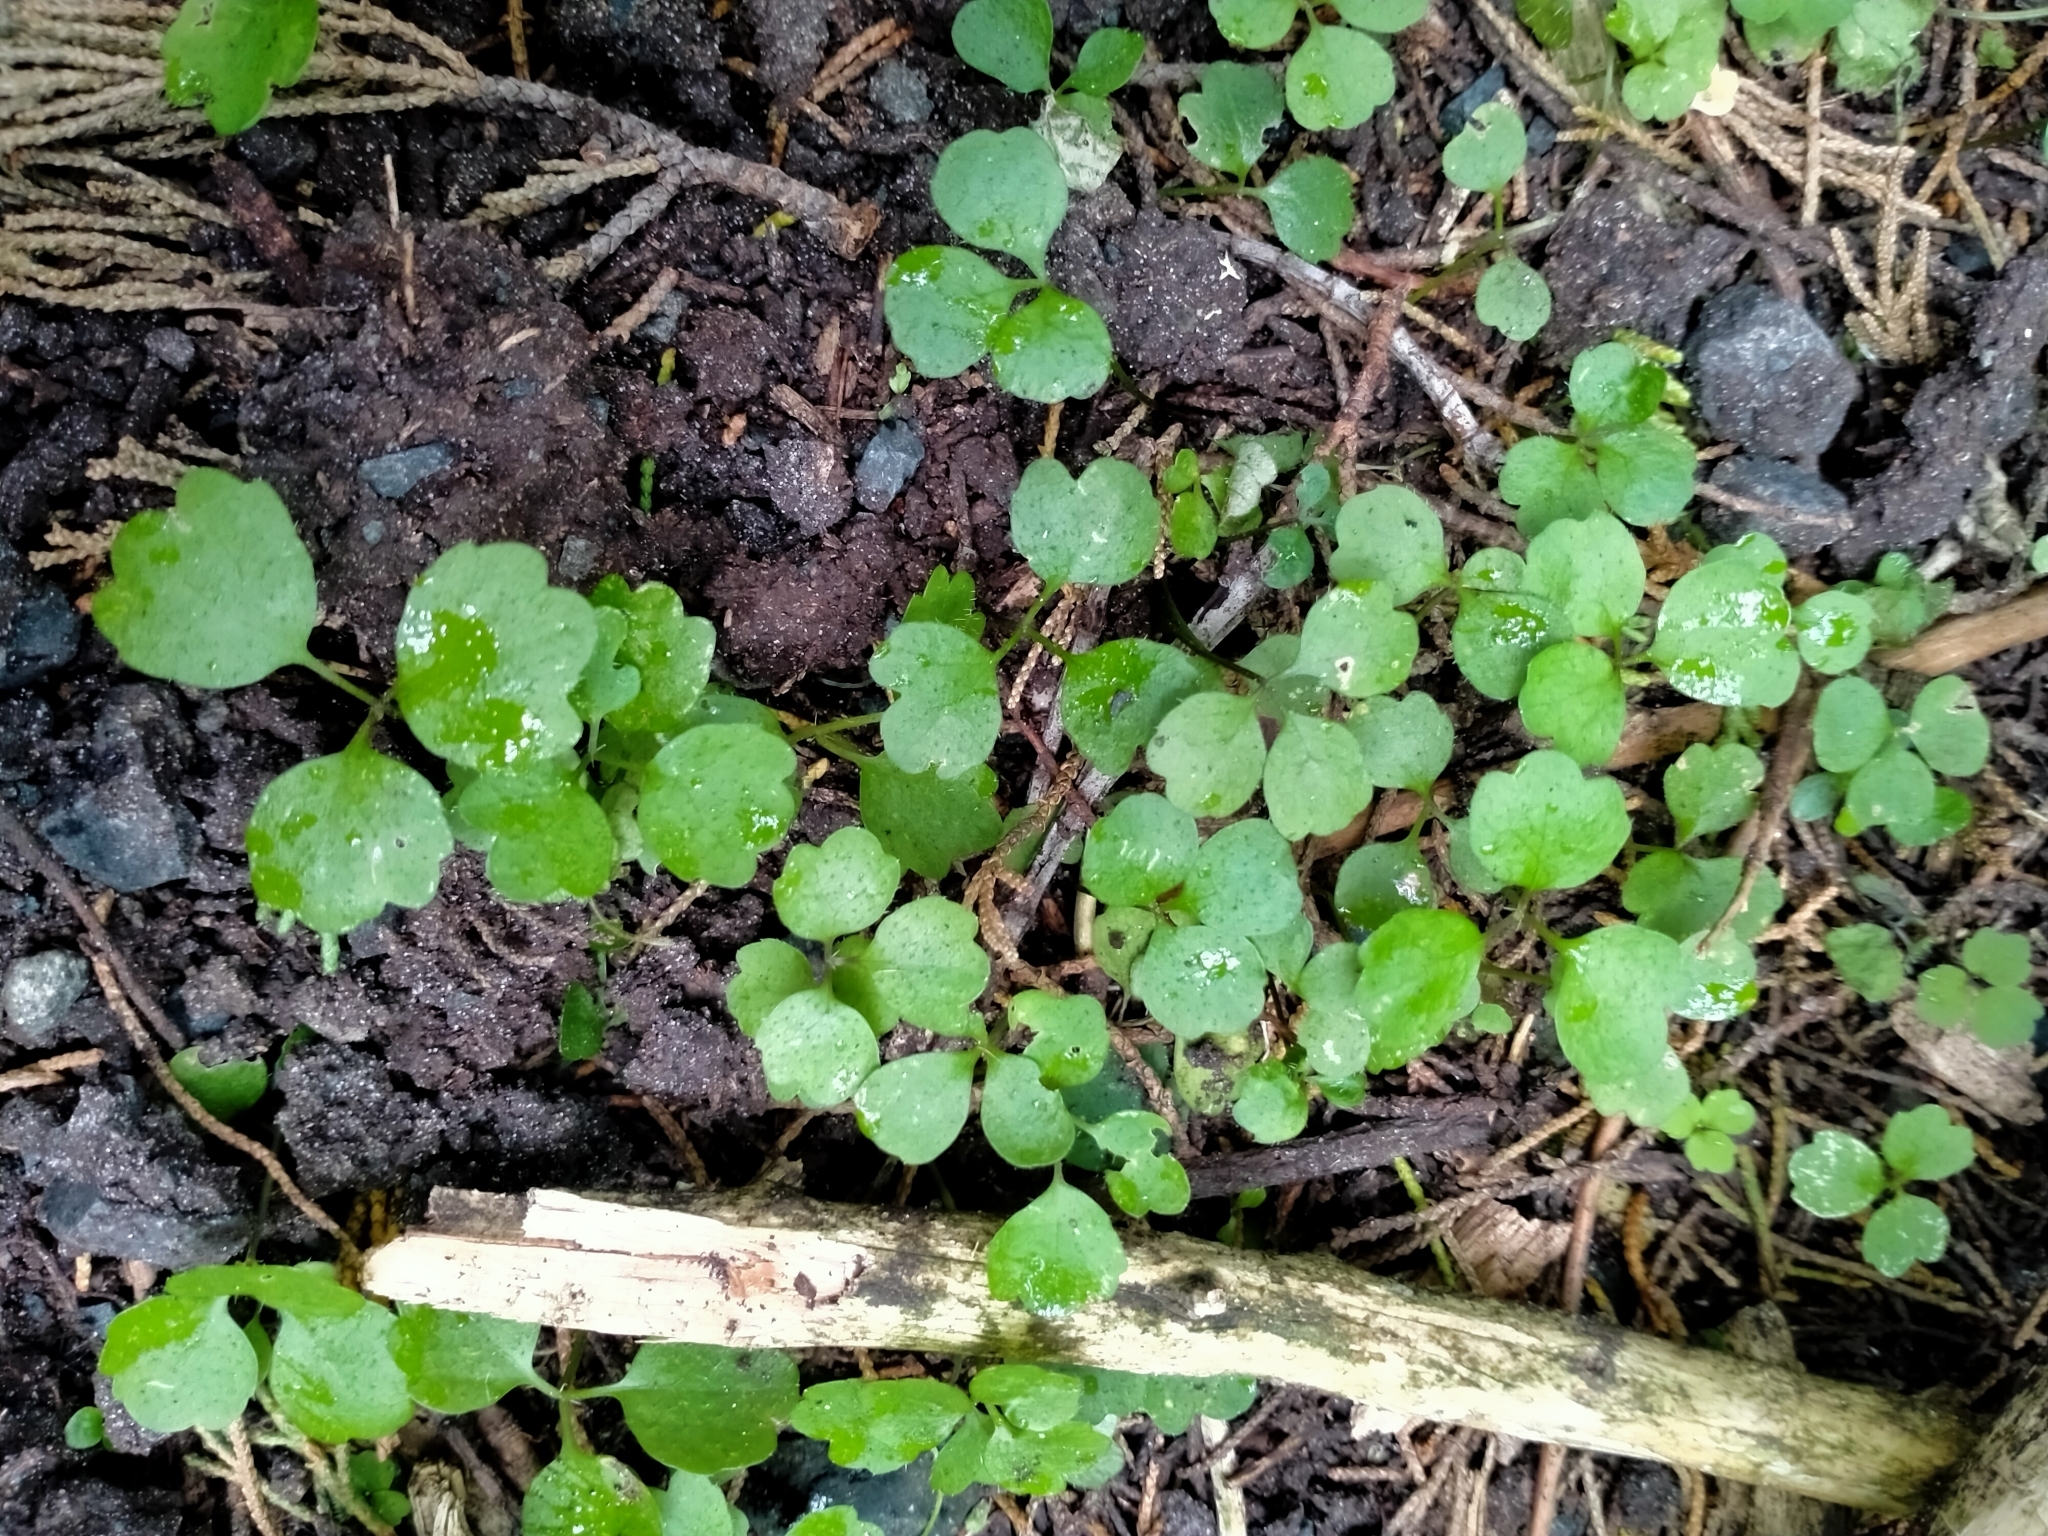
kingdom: Plantae
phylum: Tracheophyta
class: Magnoliopsida
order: Apiales
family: Apiaceae
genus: Azorella
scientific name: Azorella hookeri
